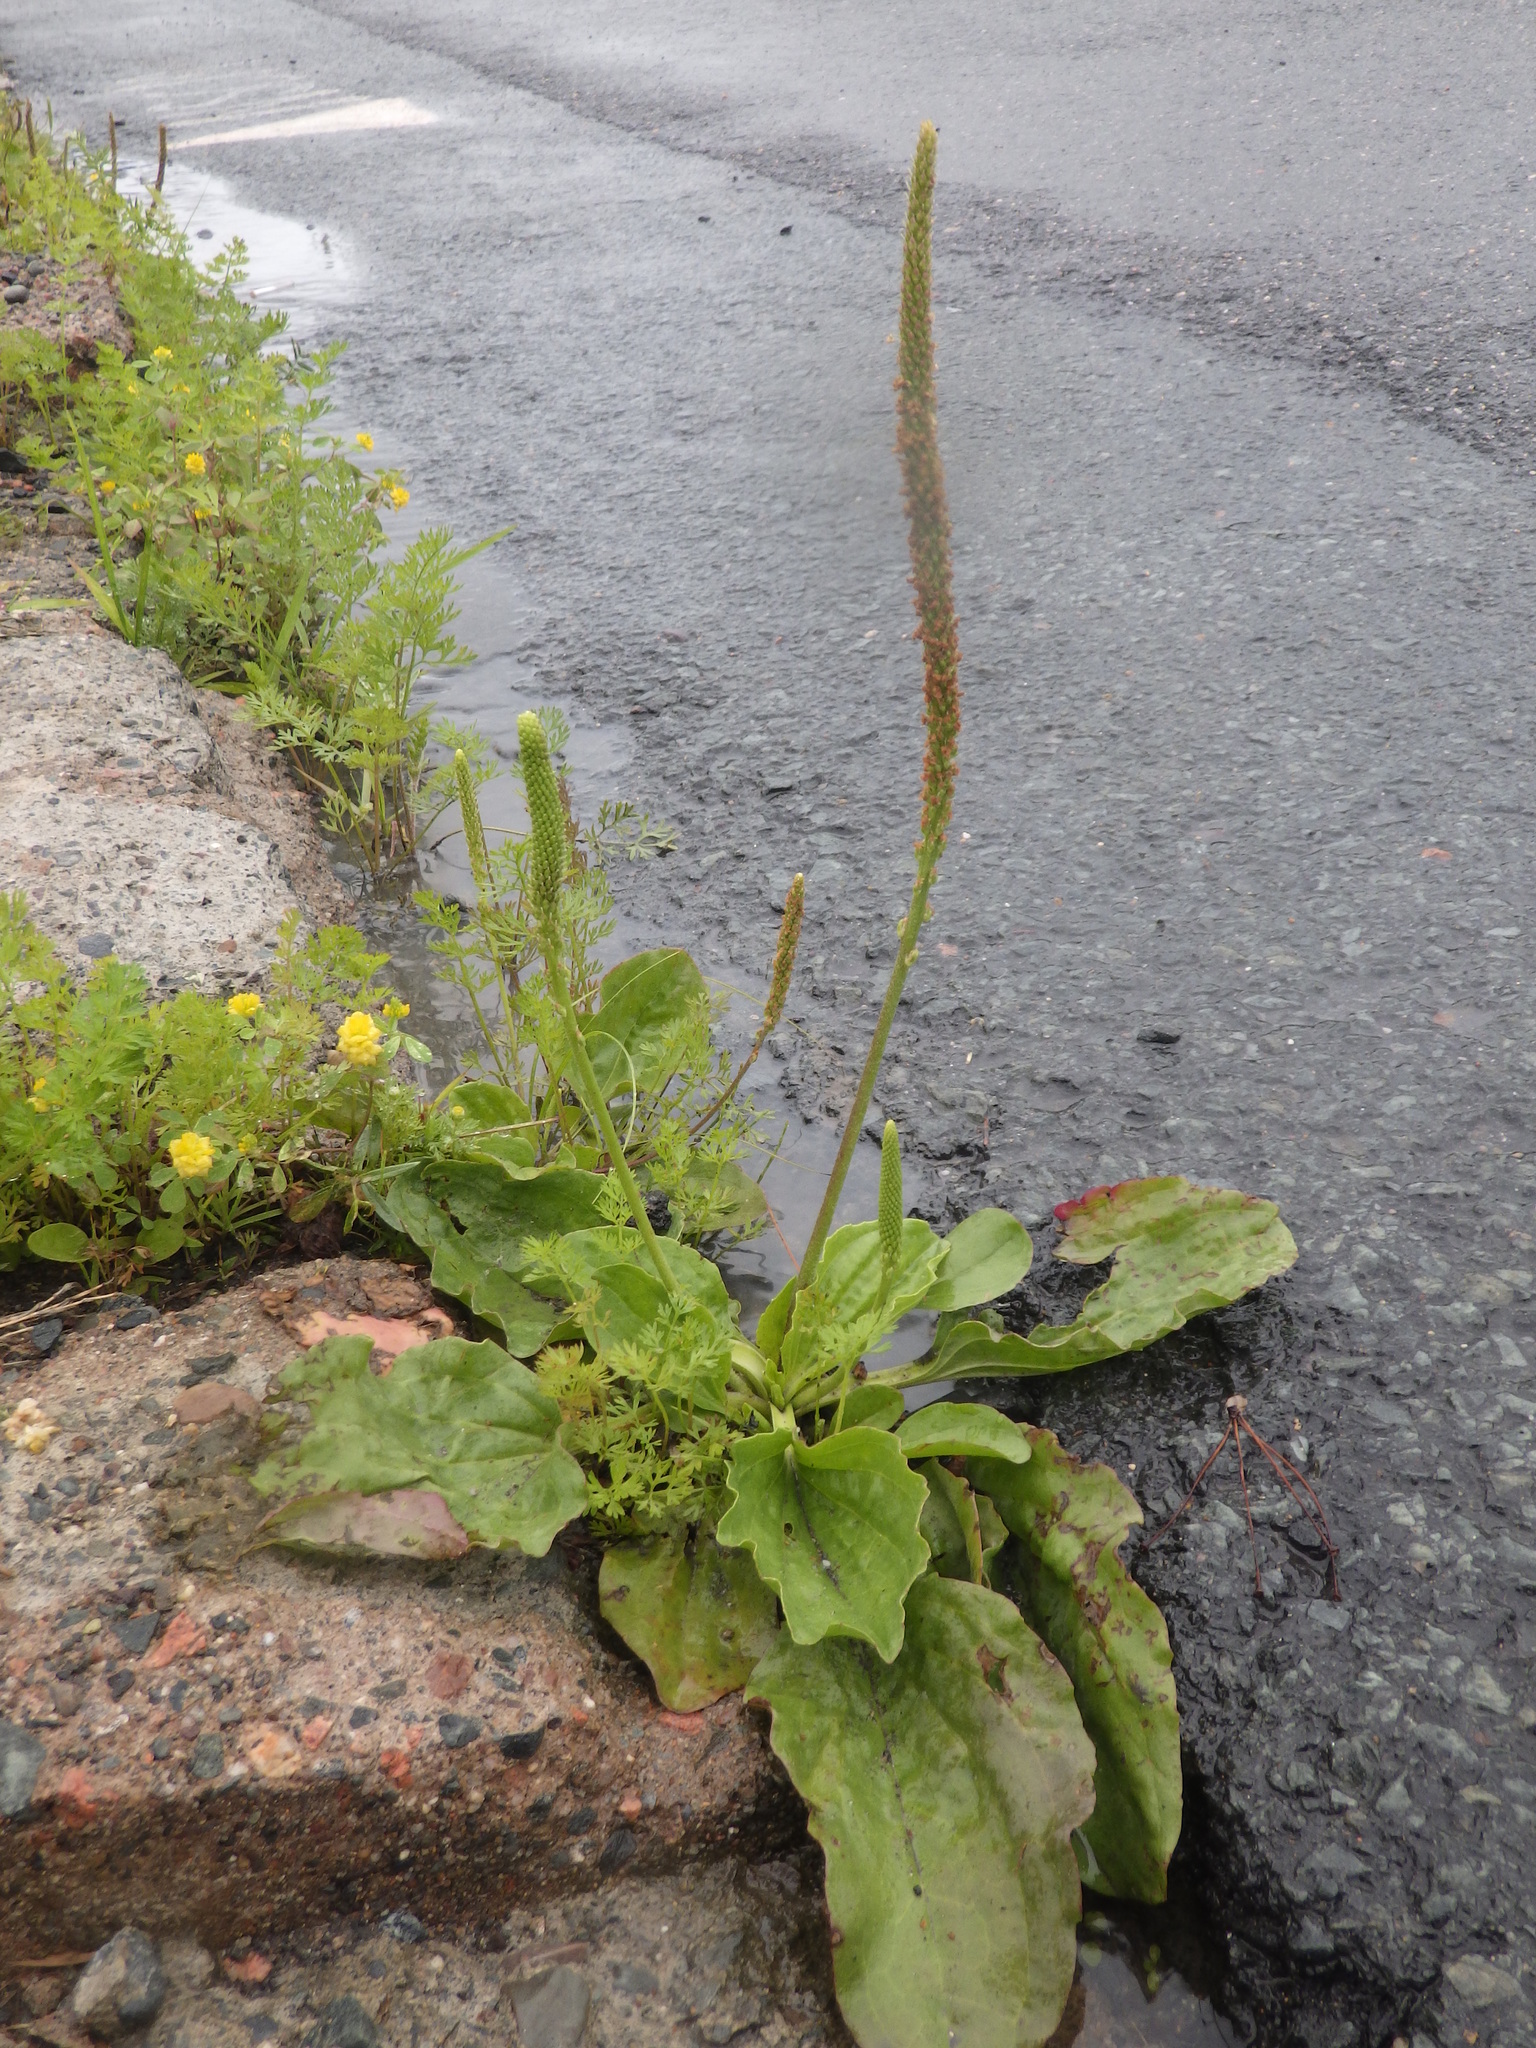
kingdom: Plantae
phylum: Tracheophyta
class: Magnoliopsida
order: Lamiales
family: Plantaginaceae
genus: Plantago
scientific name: Plantago major
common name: Common plantain
